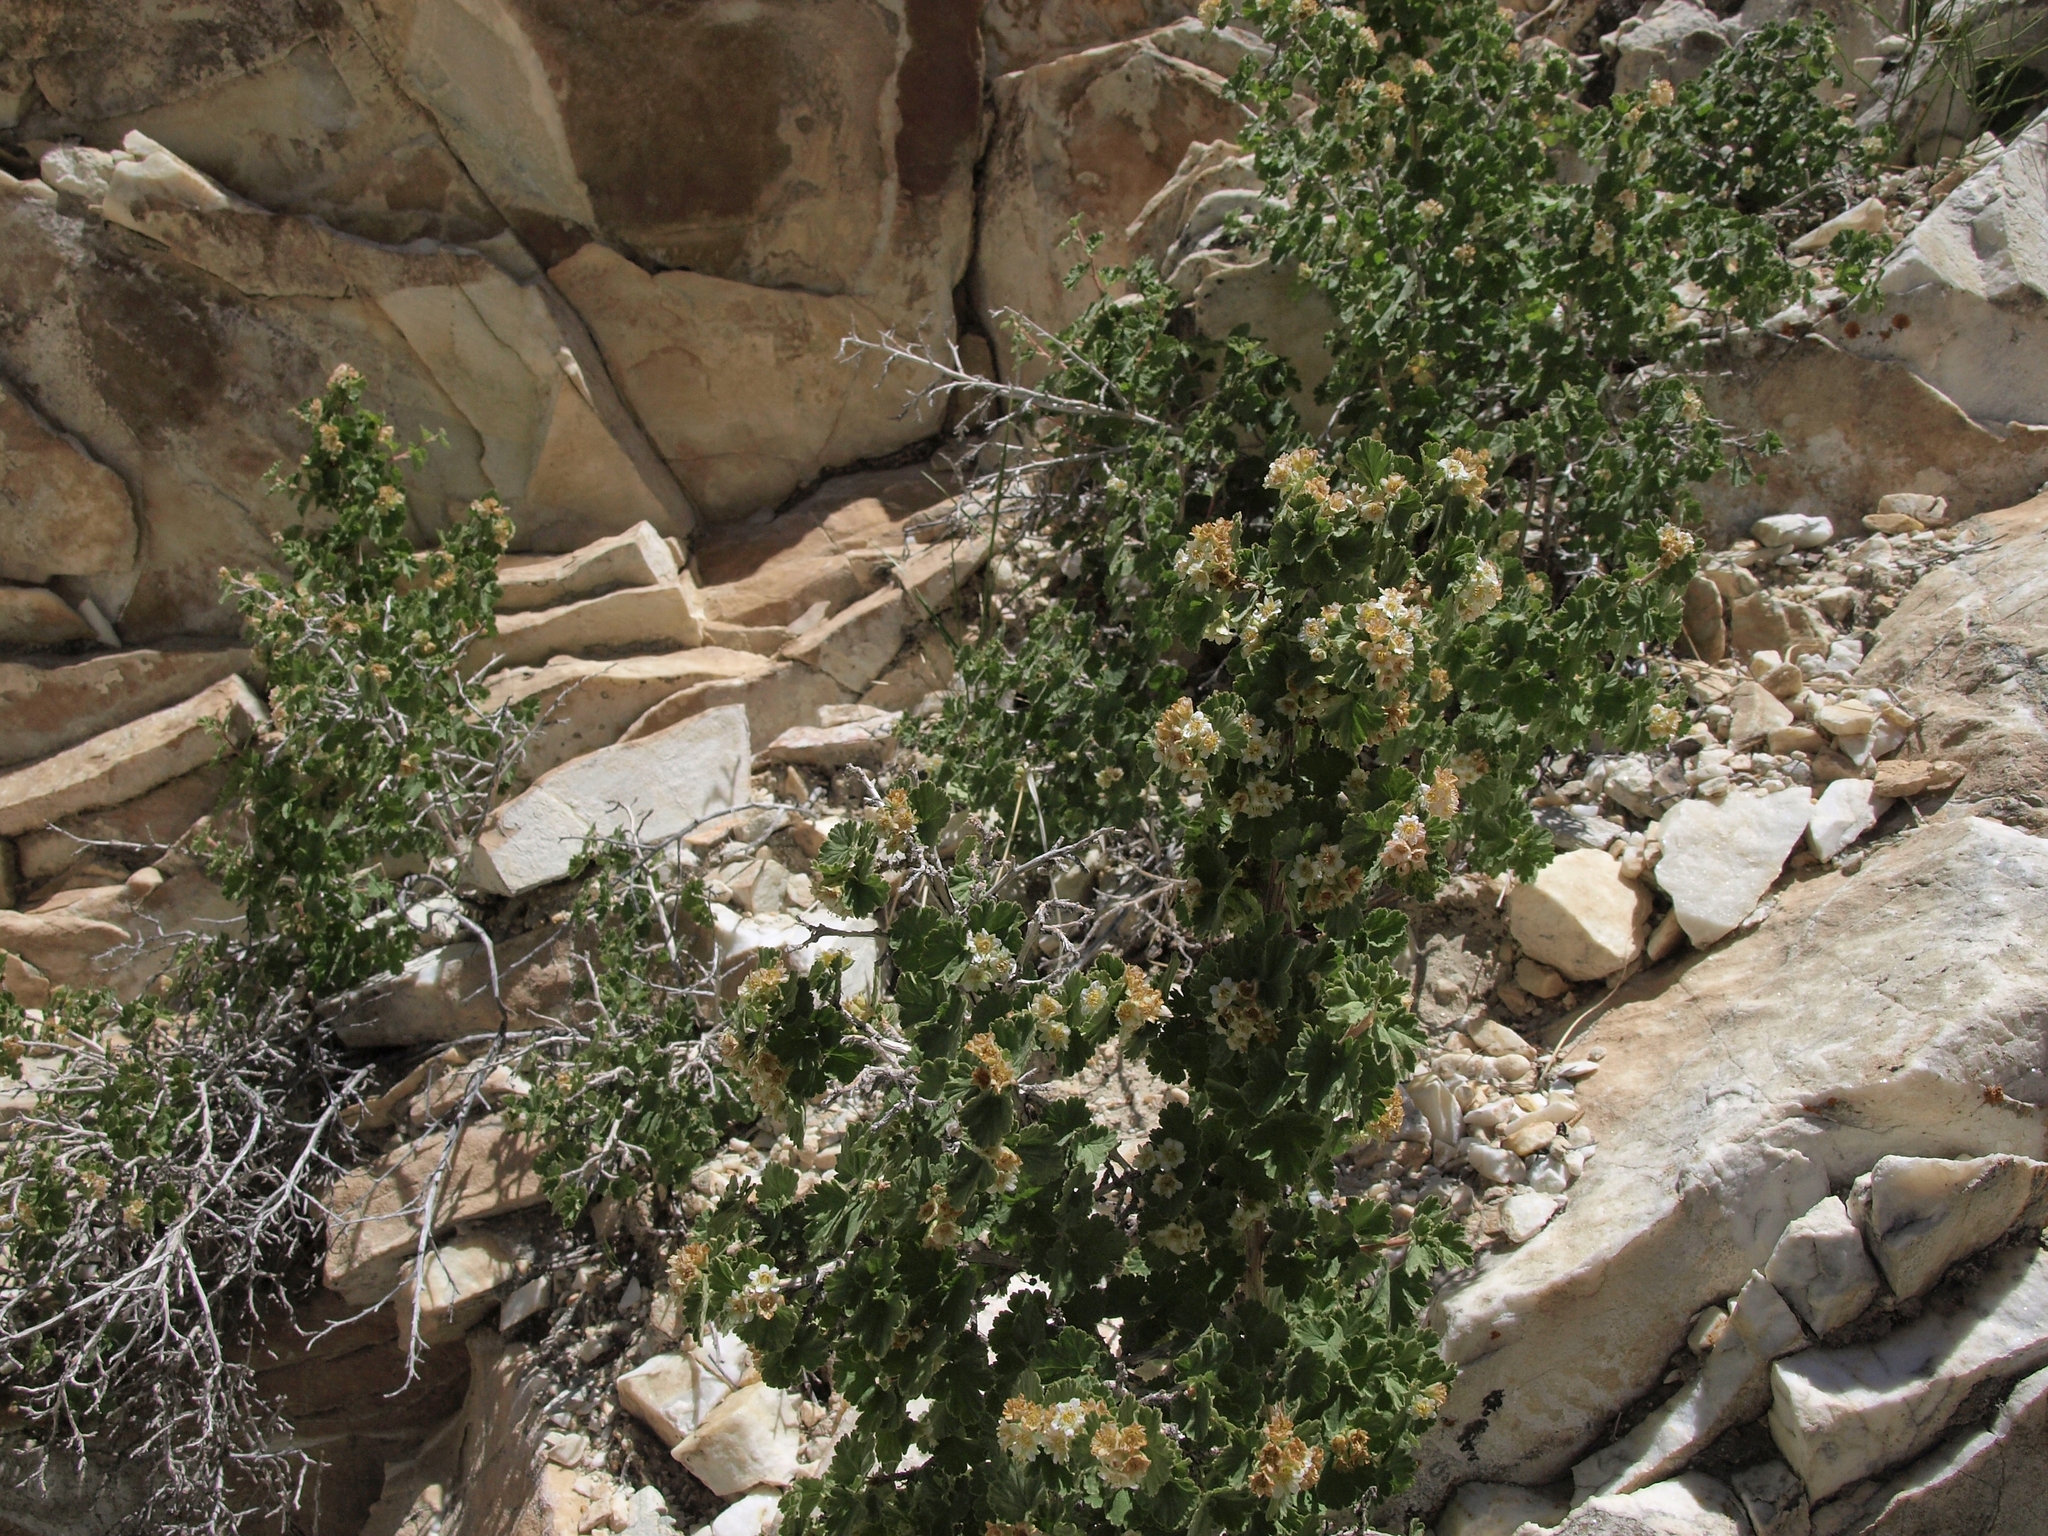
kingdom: Plantae
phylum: Tracheophyta
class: Magnoliopsida
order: Rosales
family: Rosaceae
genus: Physocarpus
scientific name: Physocarpus alternans
